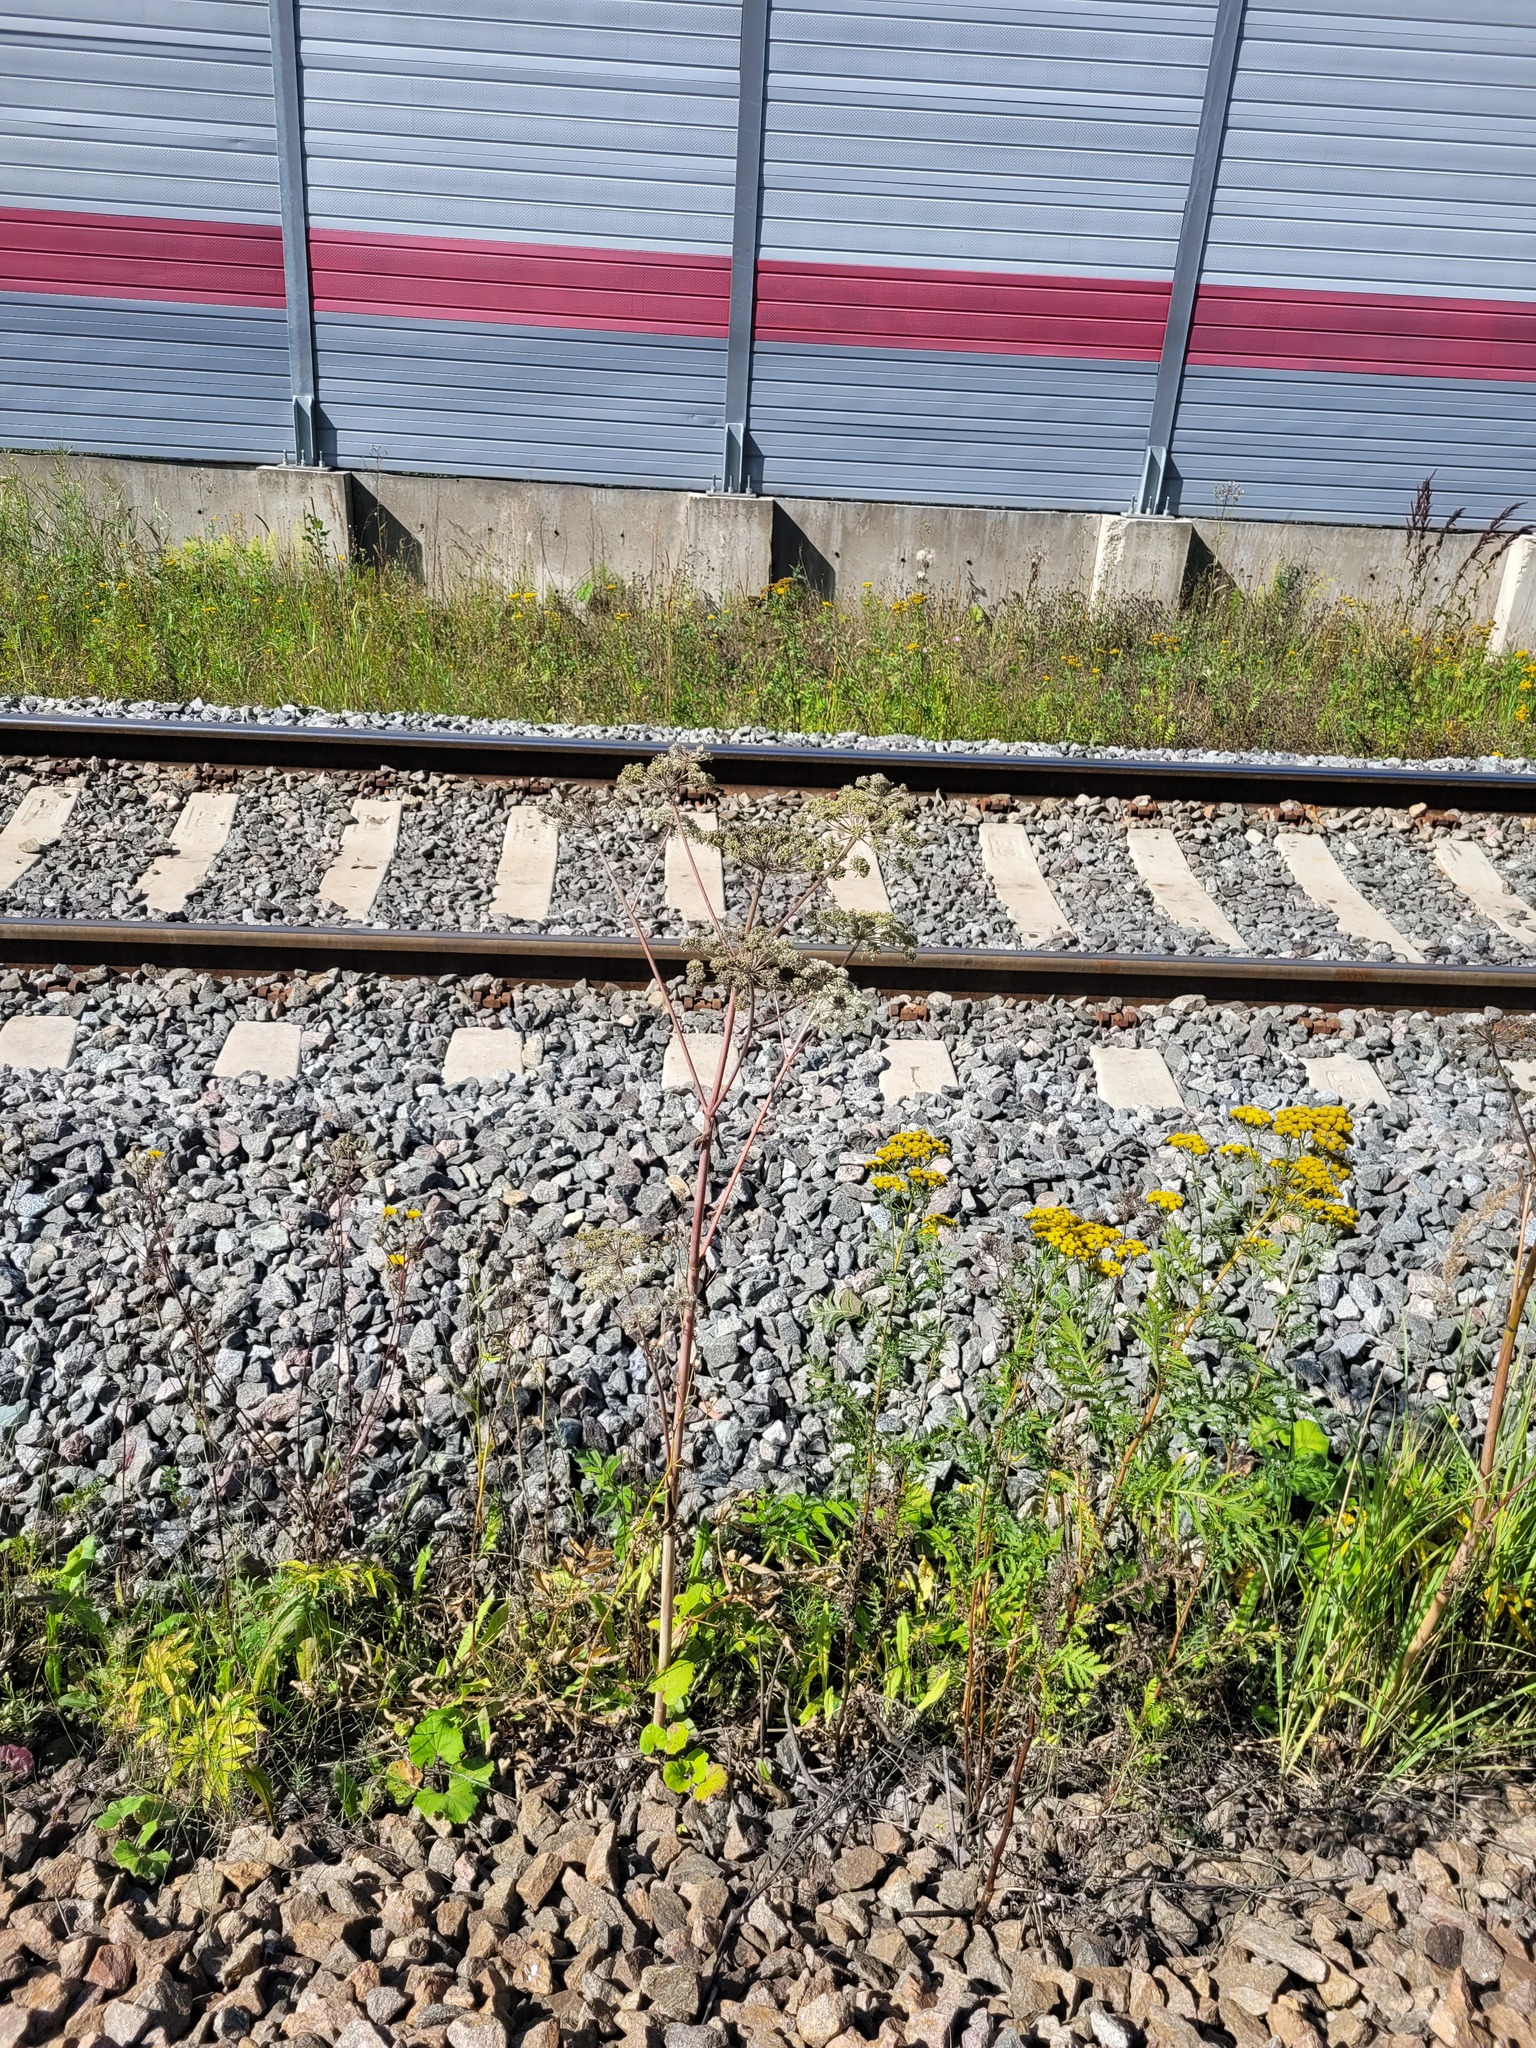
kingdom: Plantae
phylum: Tracheophyta
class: Magnoliopsida
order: Apiales
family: Apiaceae
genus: Angelica
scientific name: Angelica sylvestris
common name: Wild angelica
